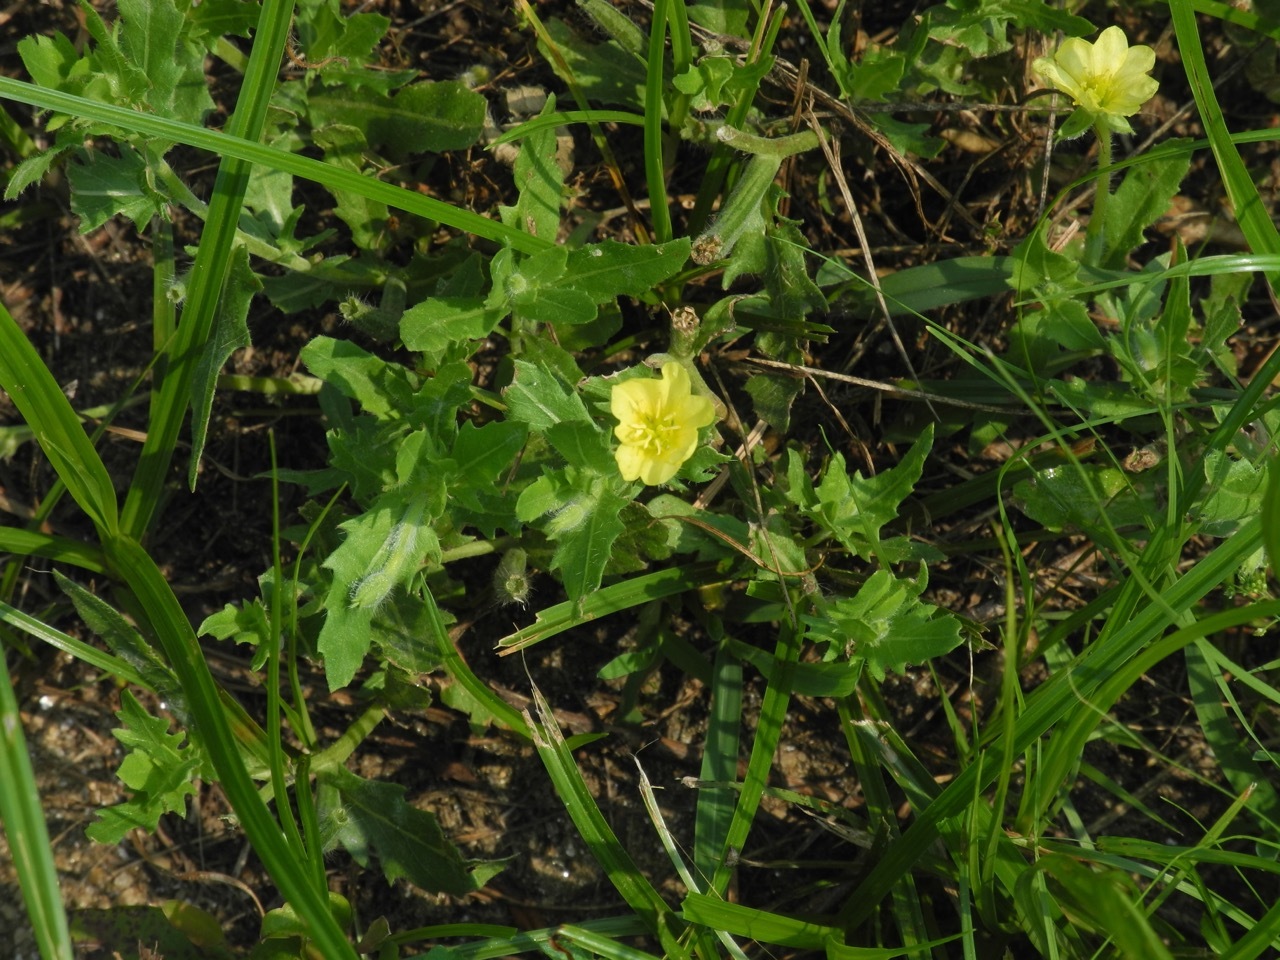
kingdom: Plantae
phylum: Tracheophyta
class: Magnoliopsida
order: Myrtales
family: Onagraceae
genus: Oenothera
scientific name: Oenothera laciniata
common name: Cut-leaved evening-primrose
